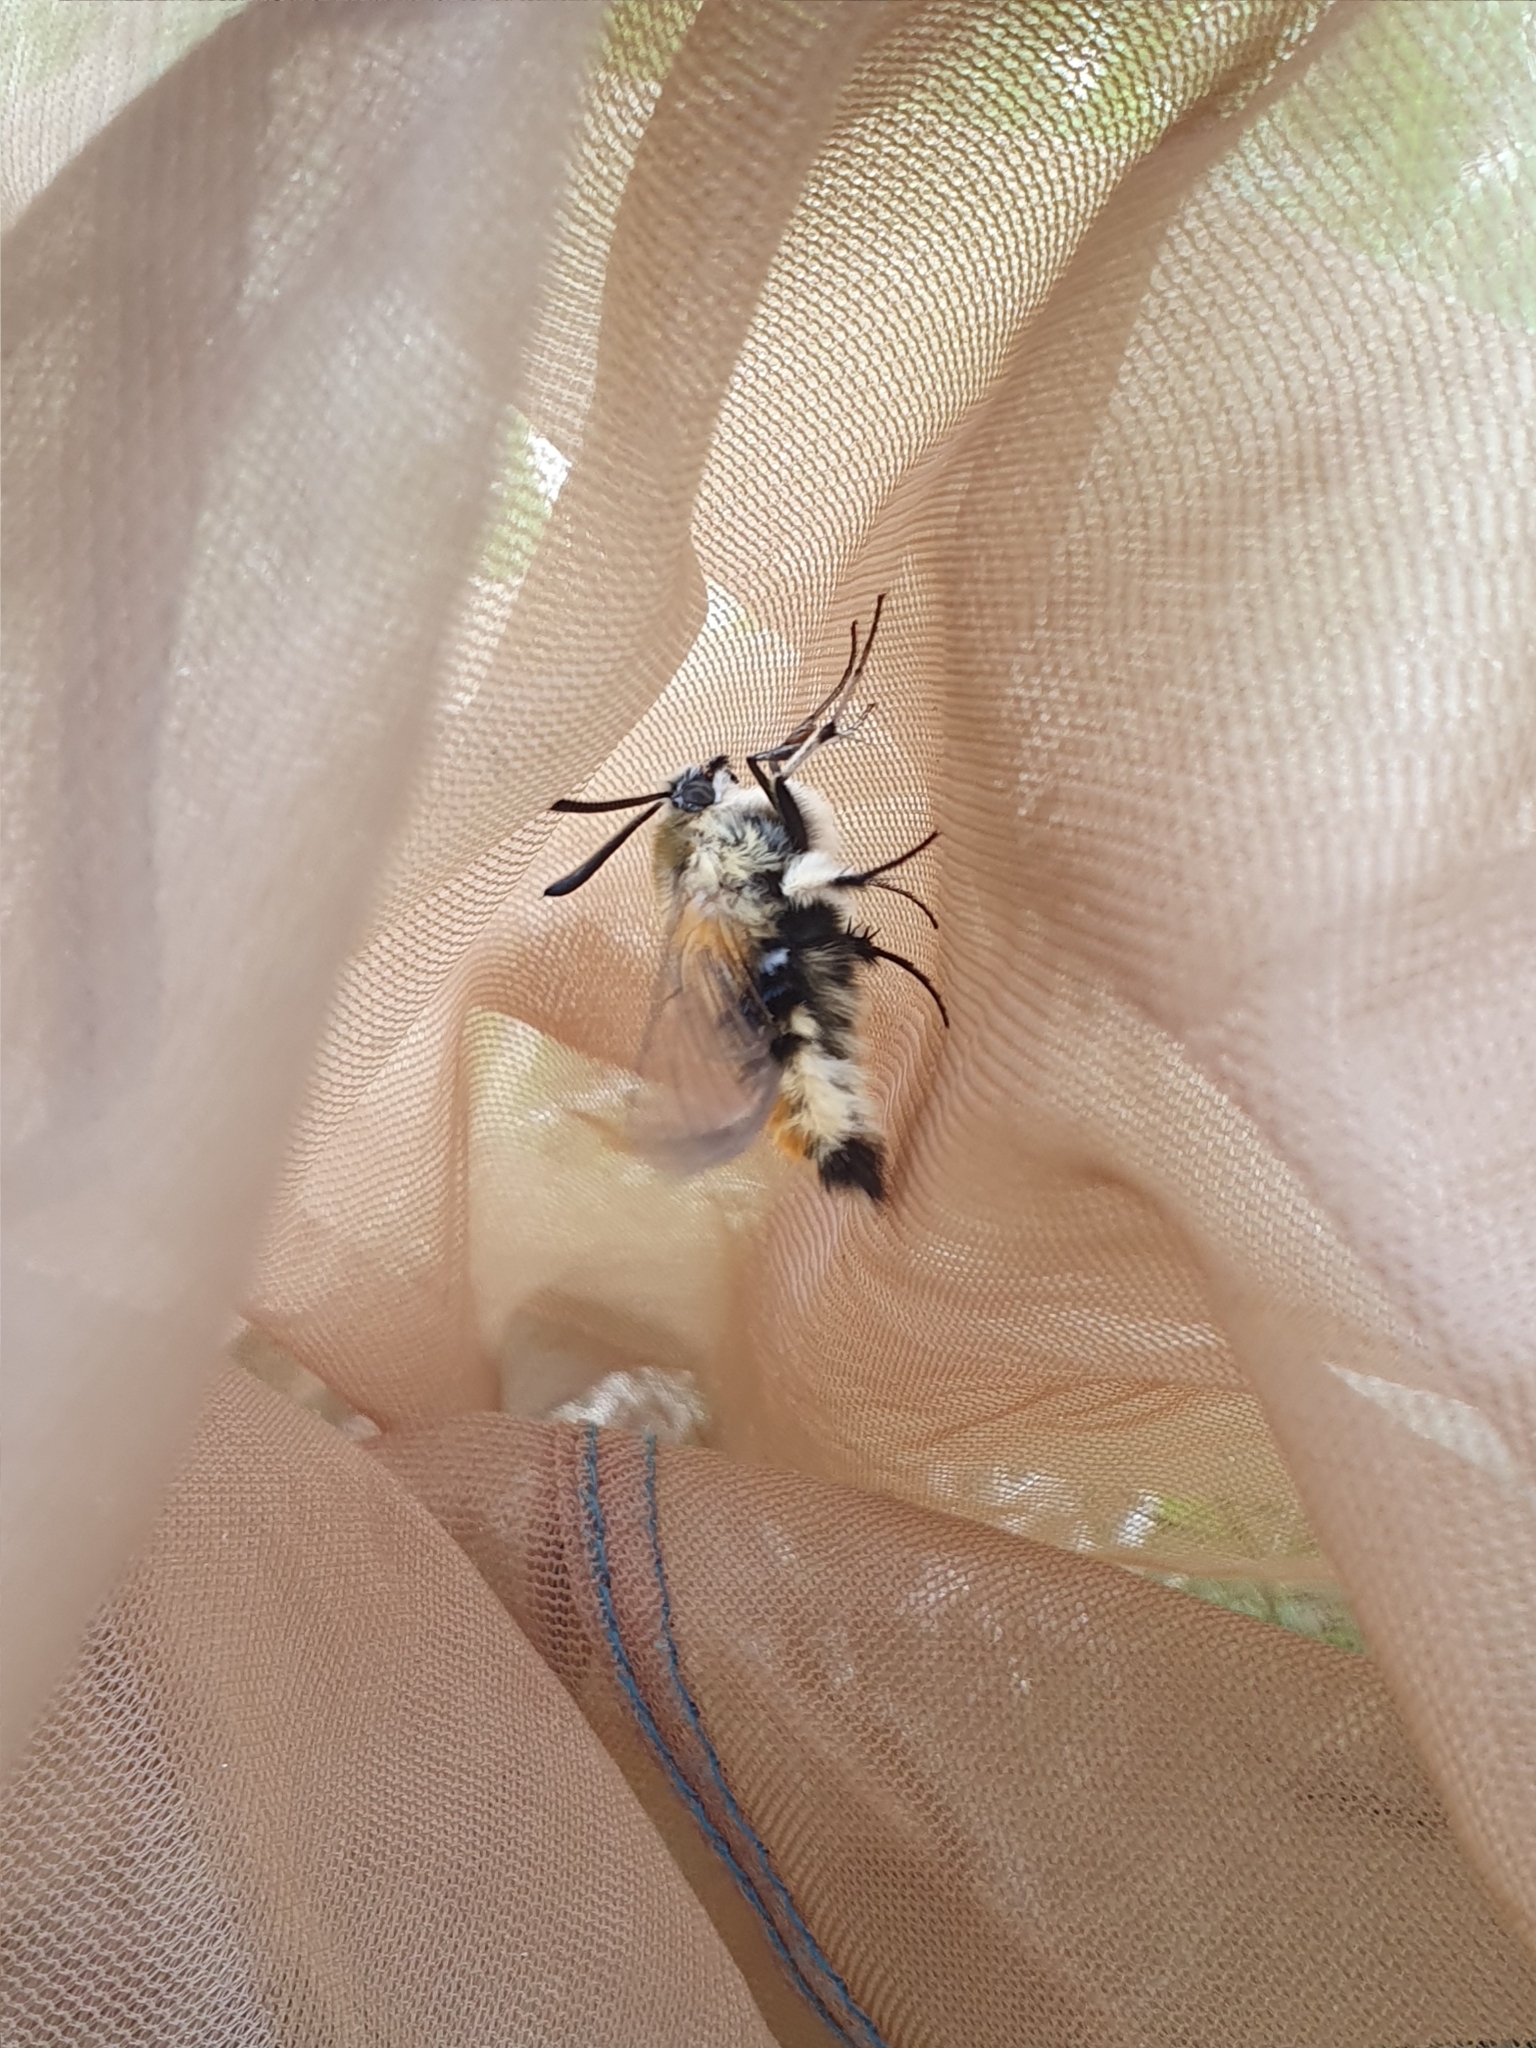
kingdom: Animalia
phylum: Arthropoda
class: Insecta
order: Lepidoptera
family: Sphingidae
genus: Hemaris
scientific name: Hemaris tityus
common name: Narrow-bordered bee hawk-moth
